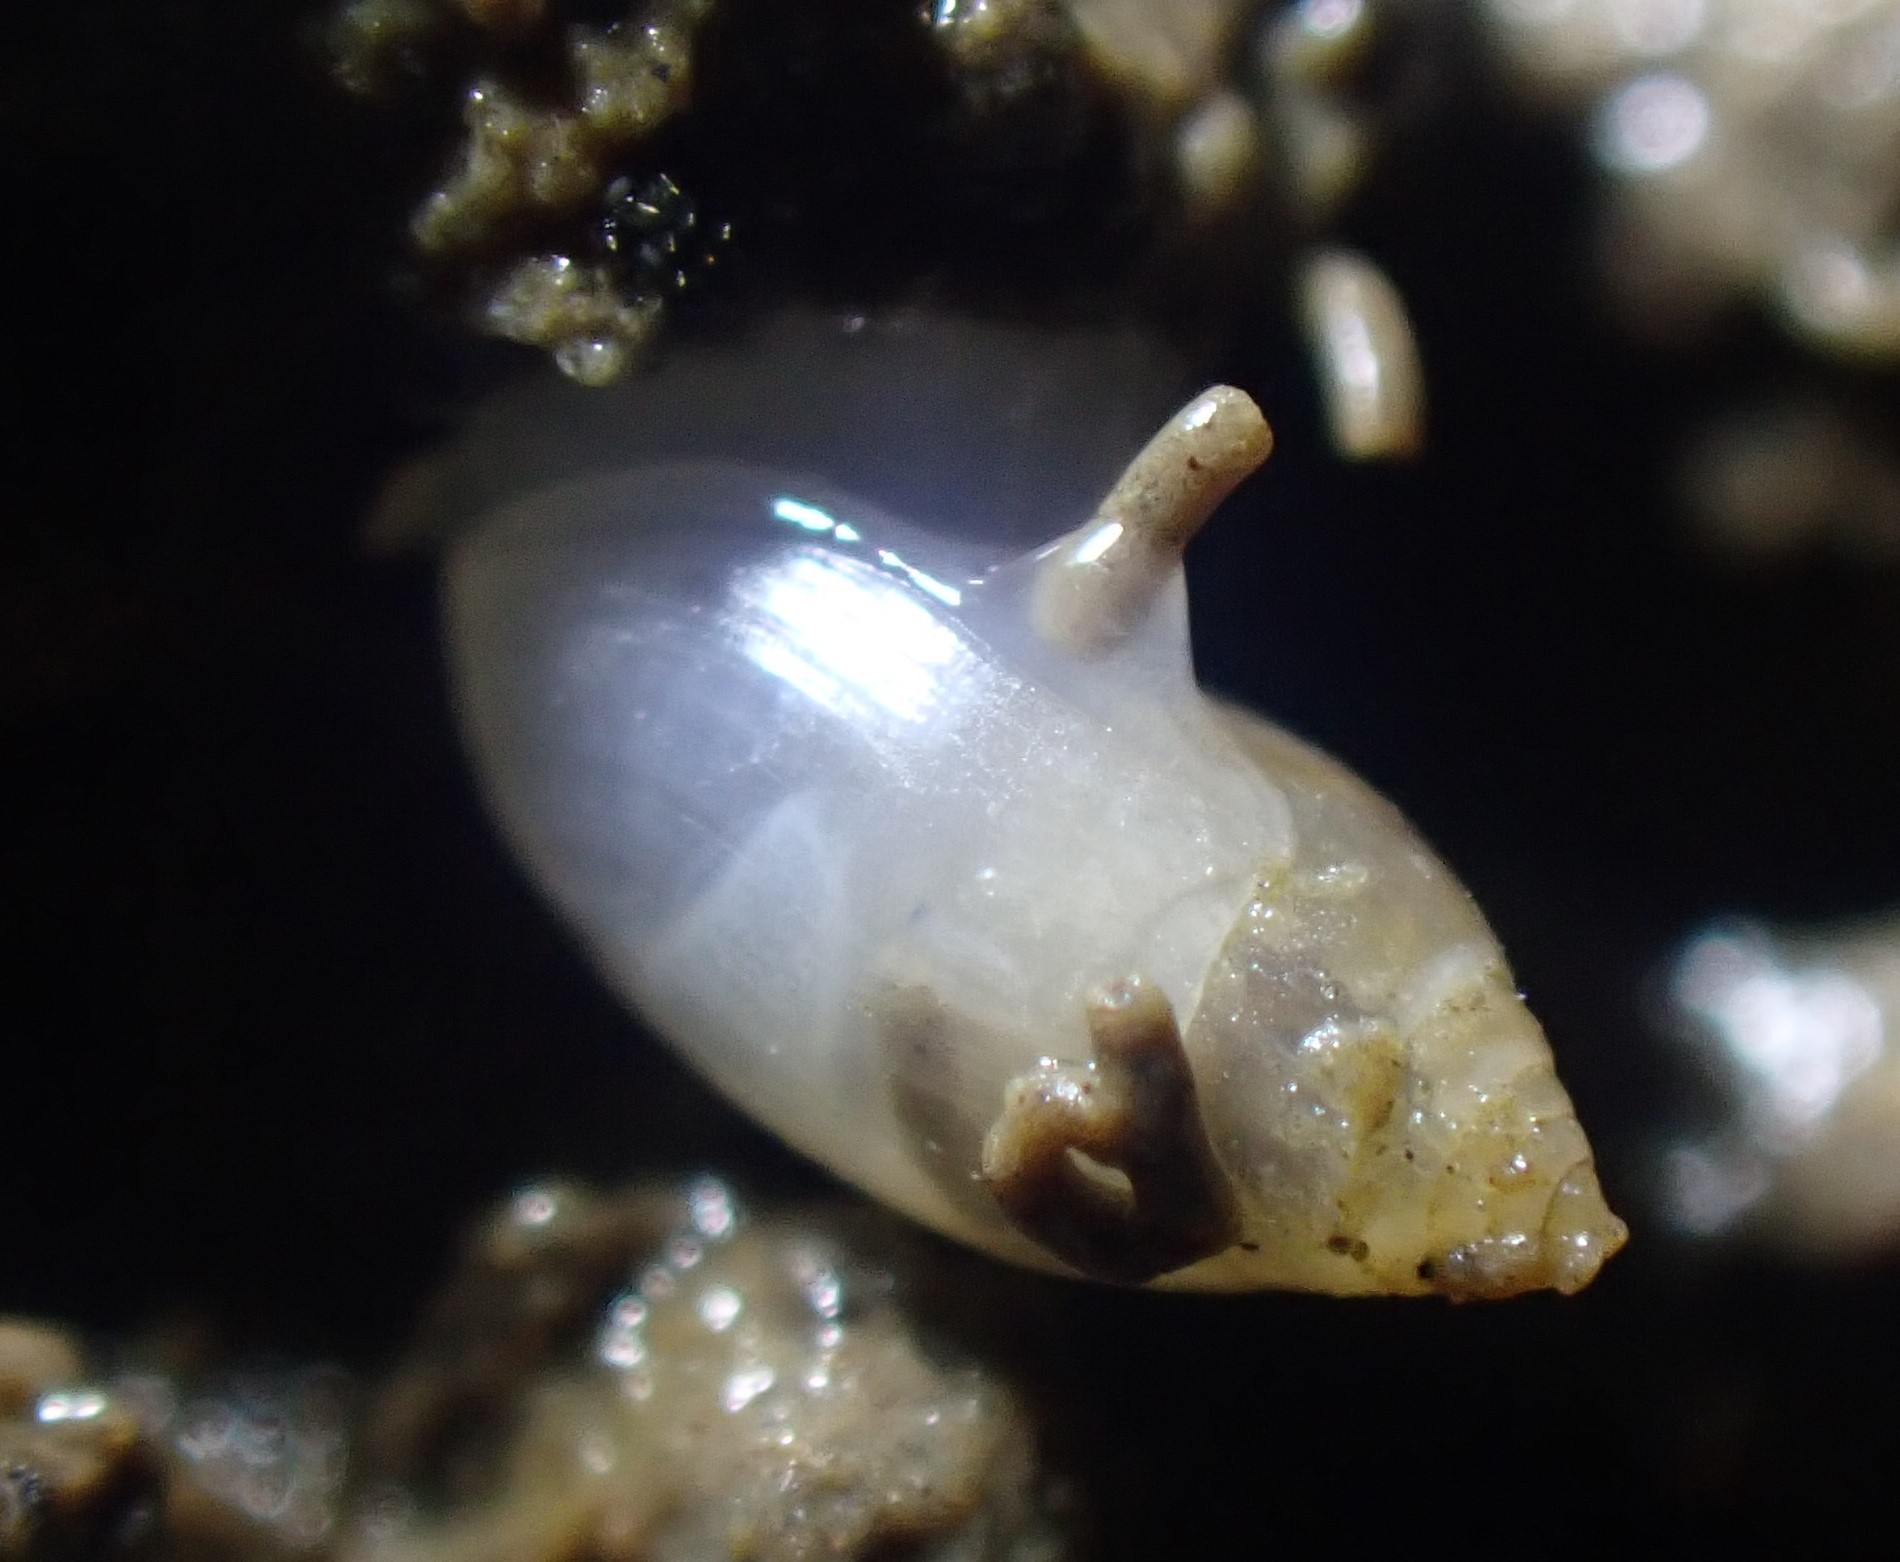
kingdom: Animalia
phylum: Mollusca
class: Gastropoda
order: Ellobiida
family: Ellobiidae
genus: Microtralia
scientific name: Microtralia insularis
